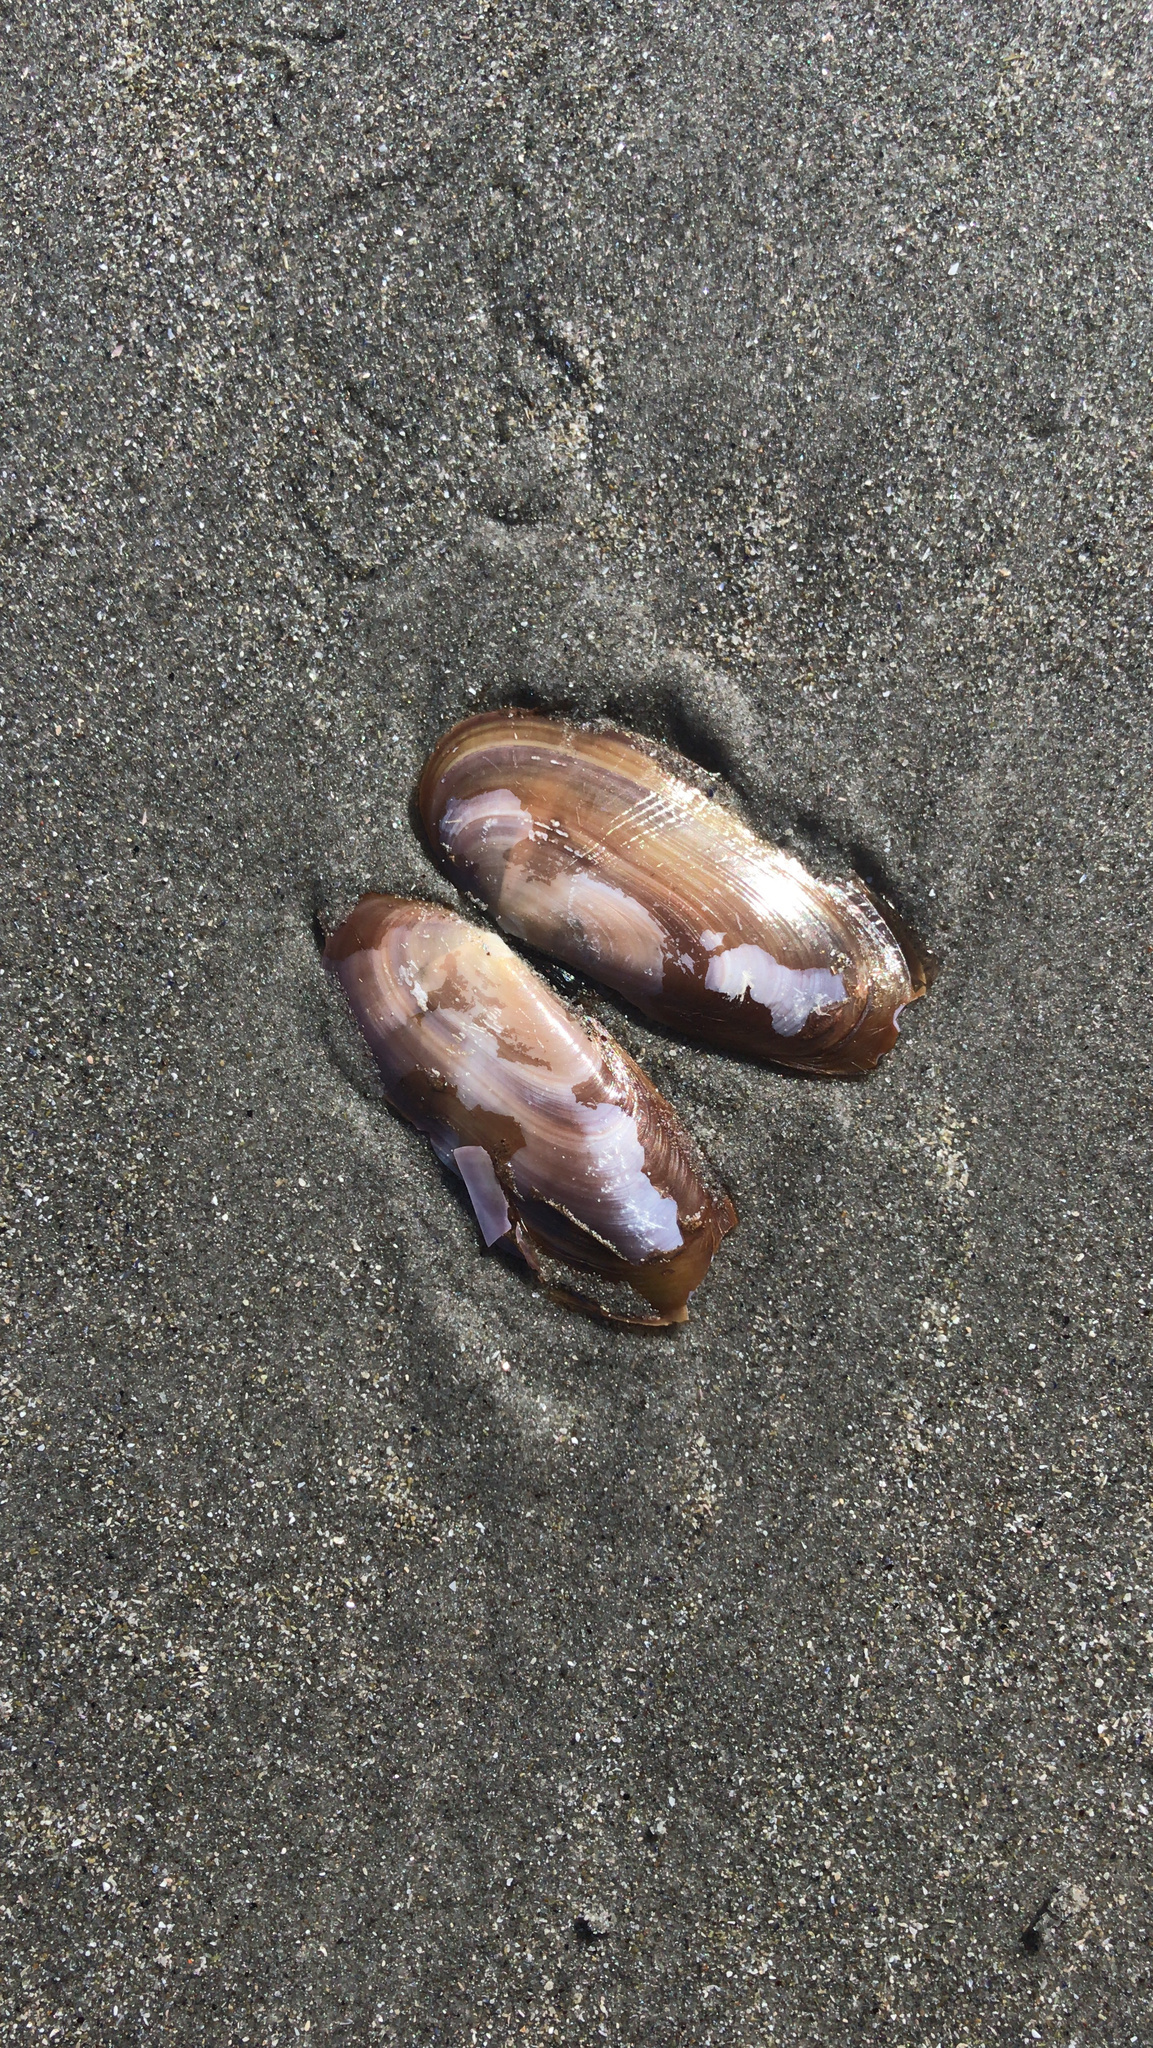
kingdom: Animalia
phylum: Mollusca
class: Bivalvia
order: Adapedonta
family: Pharidae
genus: Siliqua
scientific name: Siliqua costata
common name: Atlantic razor
